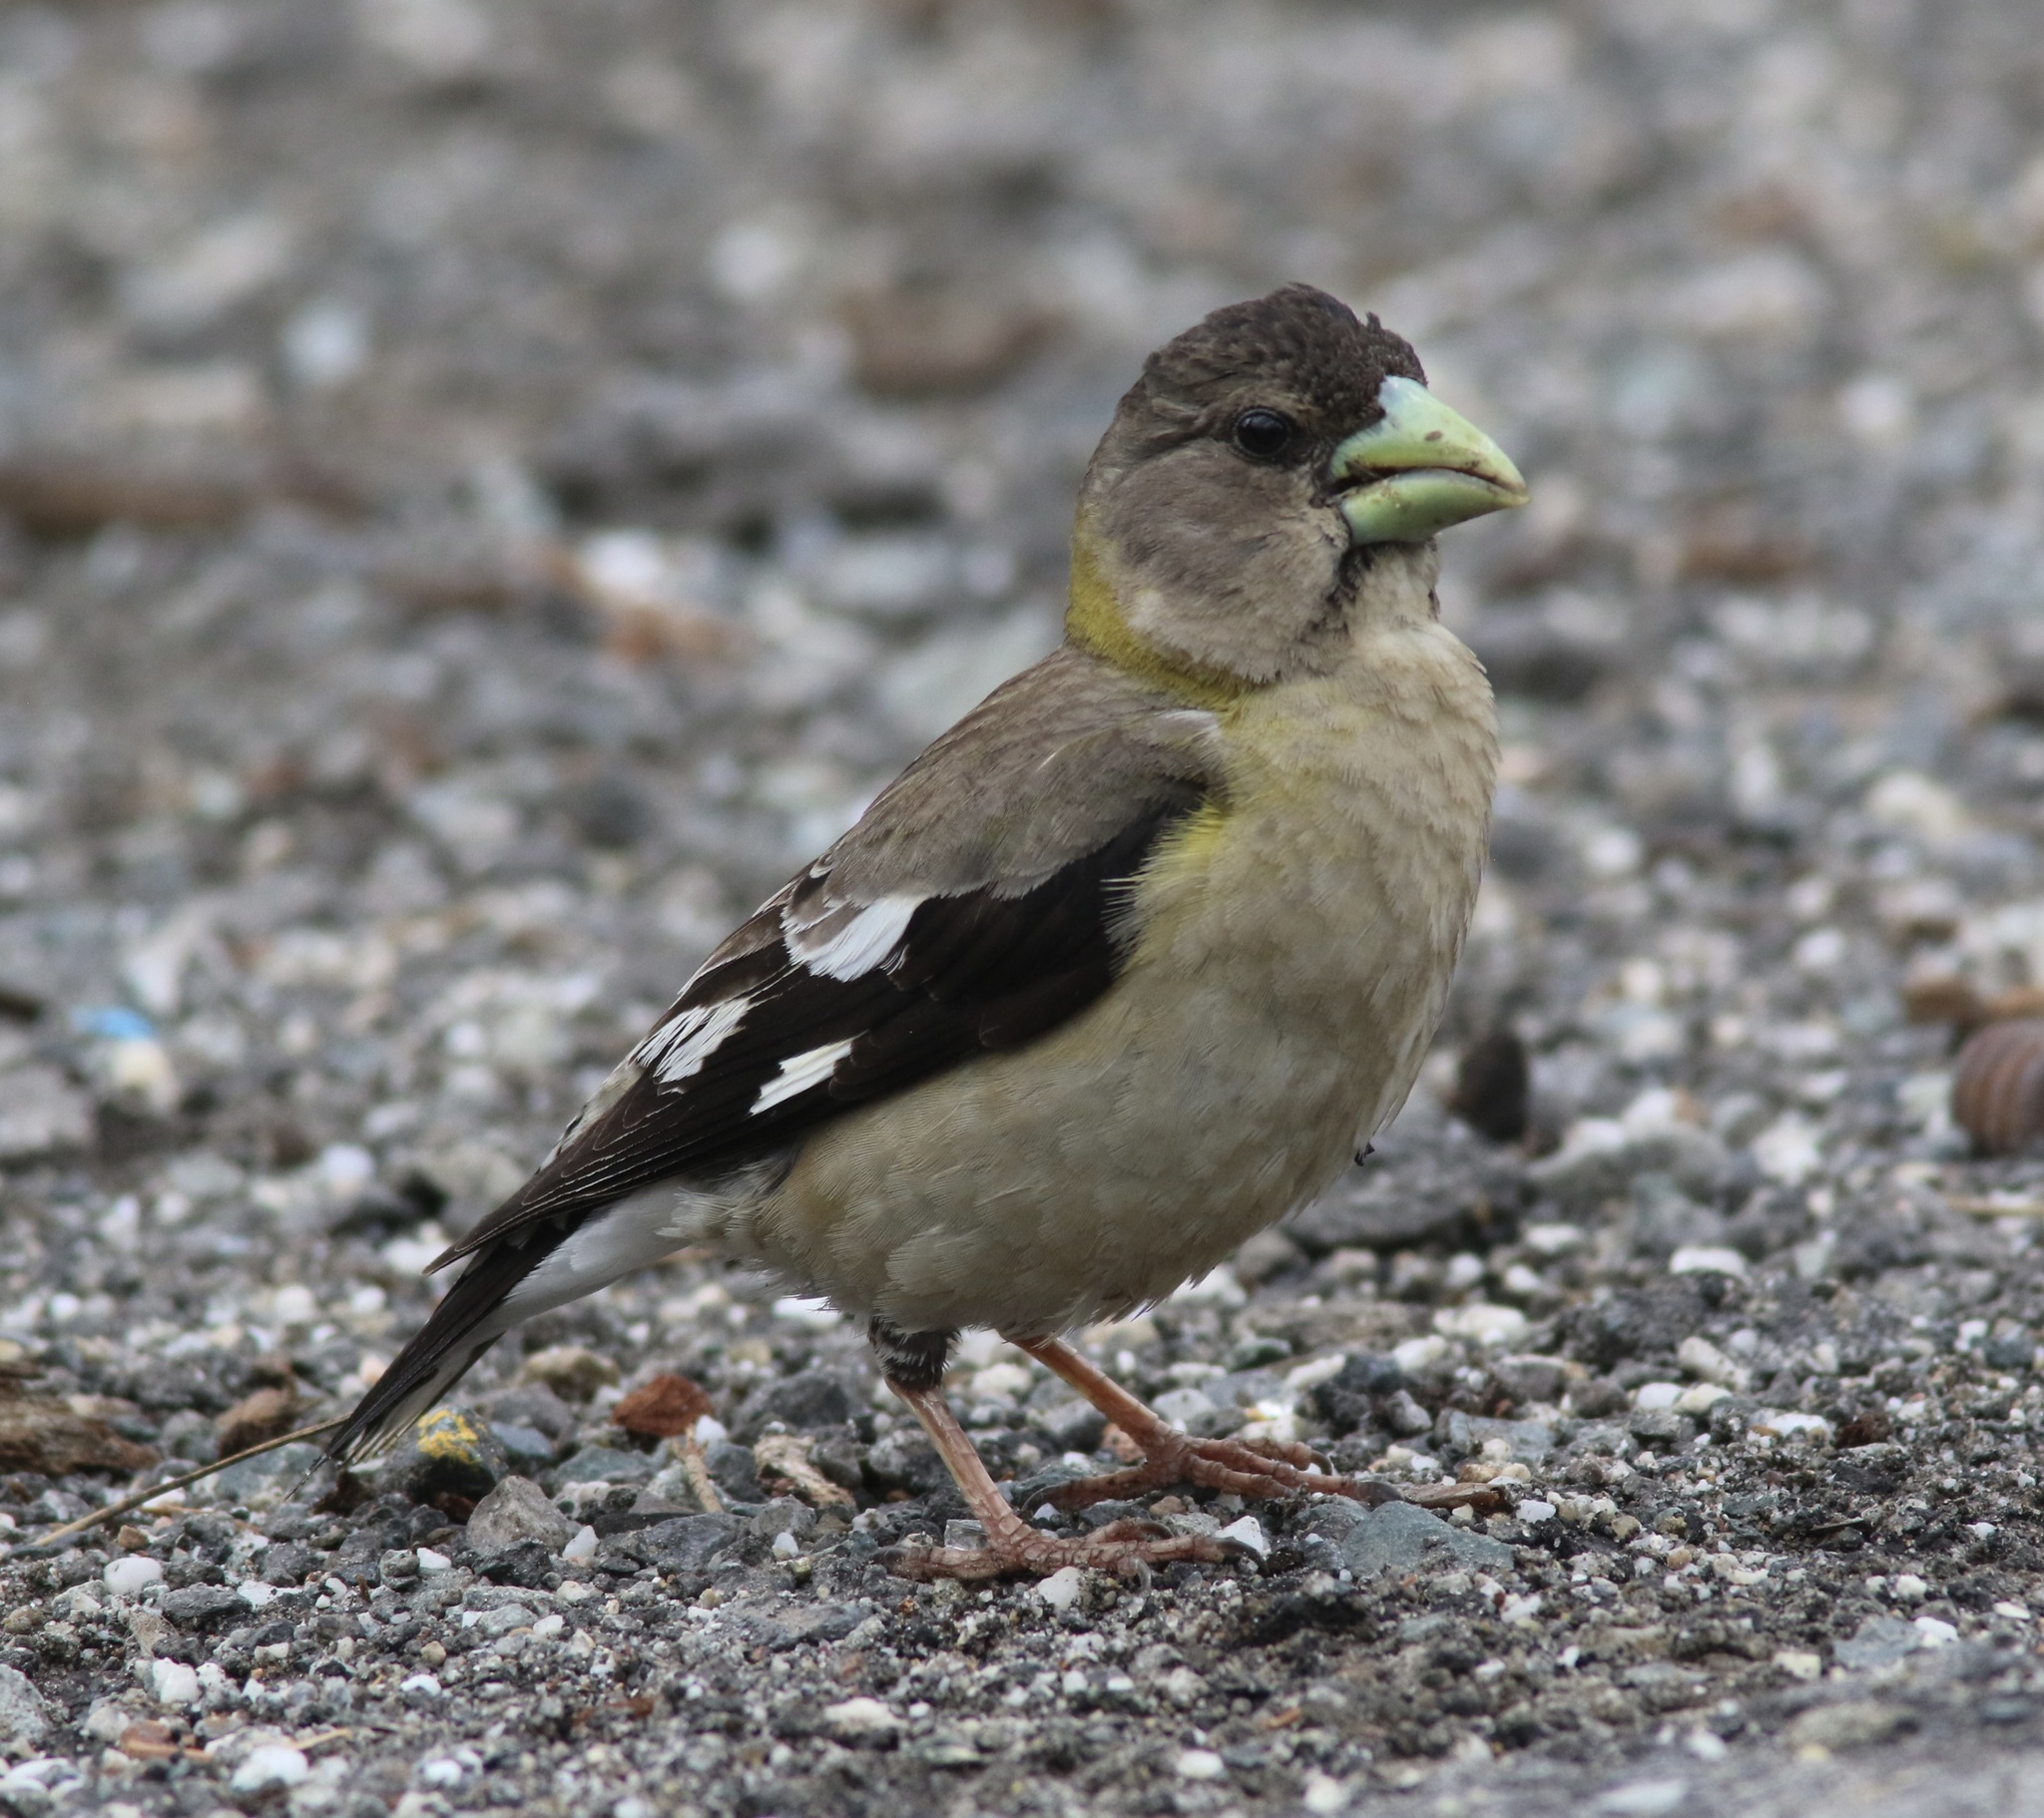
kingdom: Animalia
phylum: Chordata
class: Aves
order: Passeriformes
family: Fringillidae
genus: Hesperiphona
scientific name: Hesperiphona vespertina
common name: Evening grosbeak
